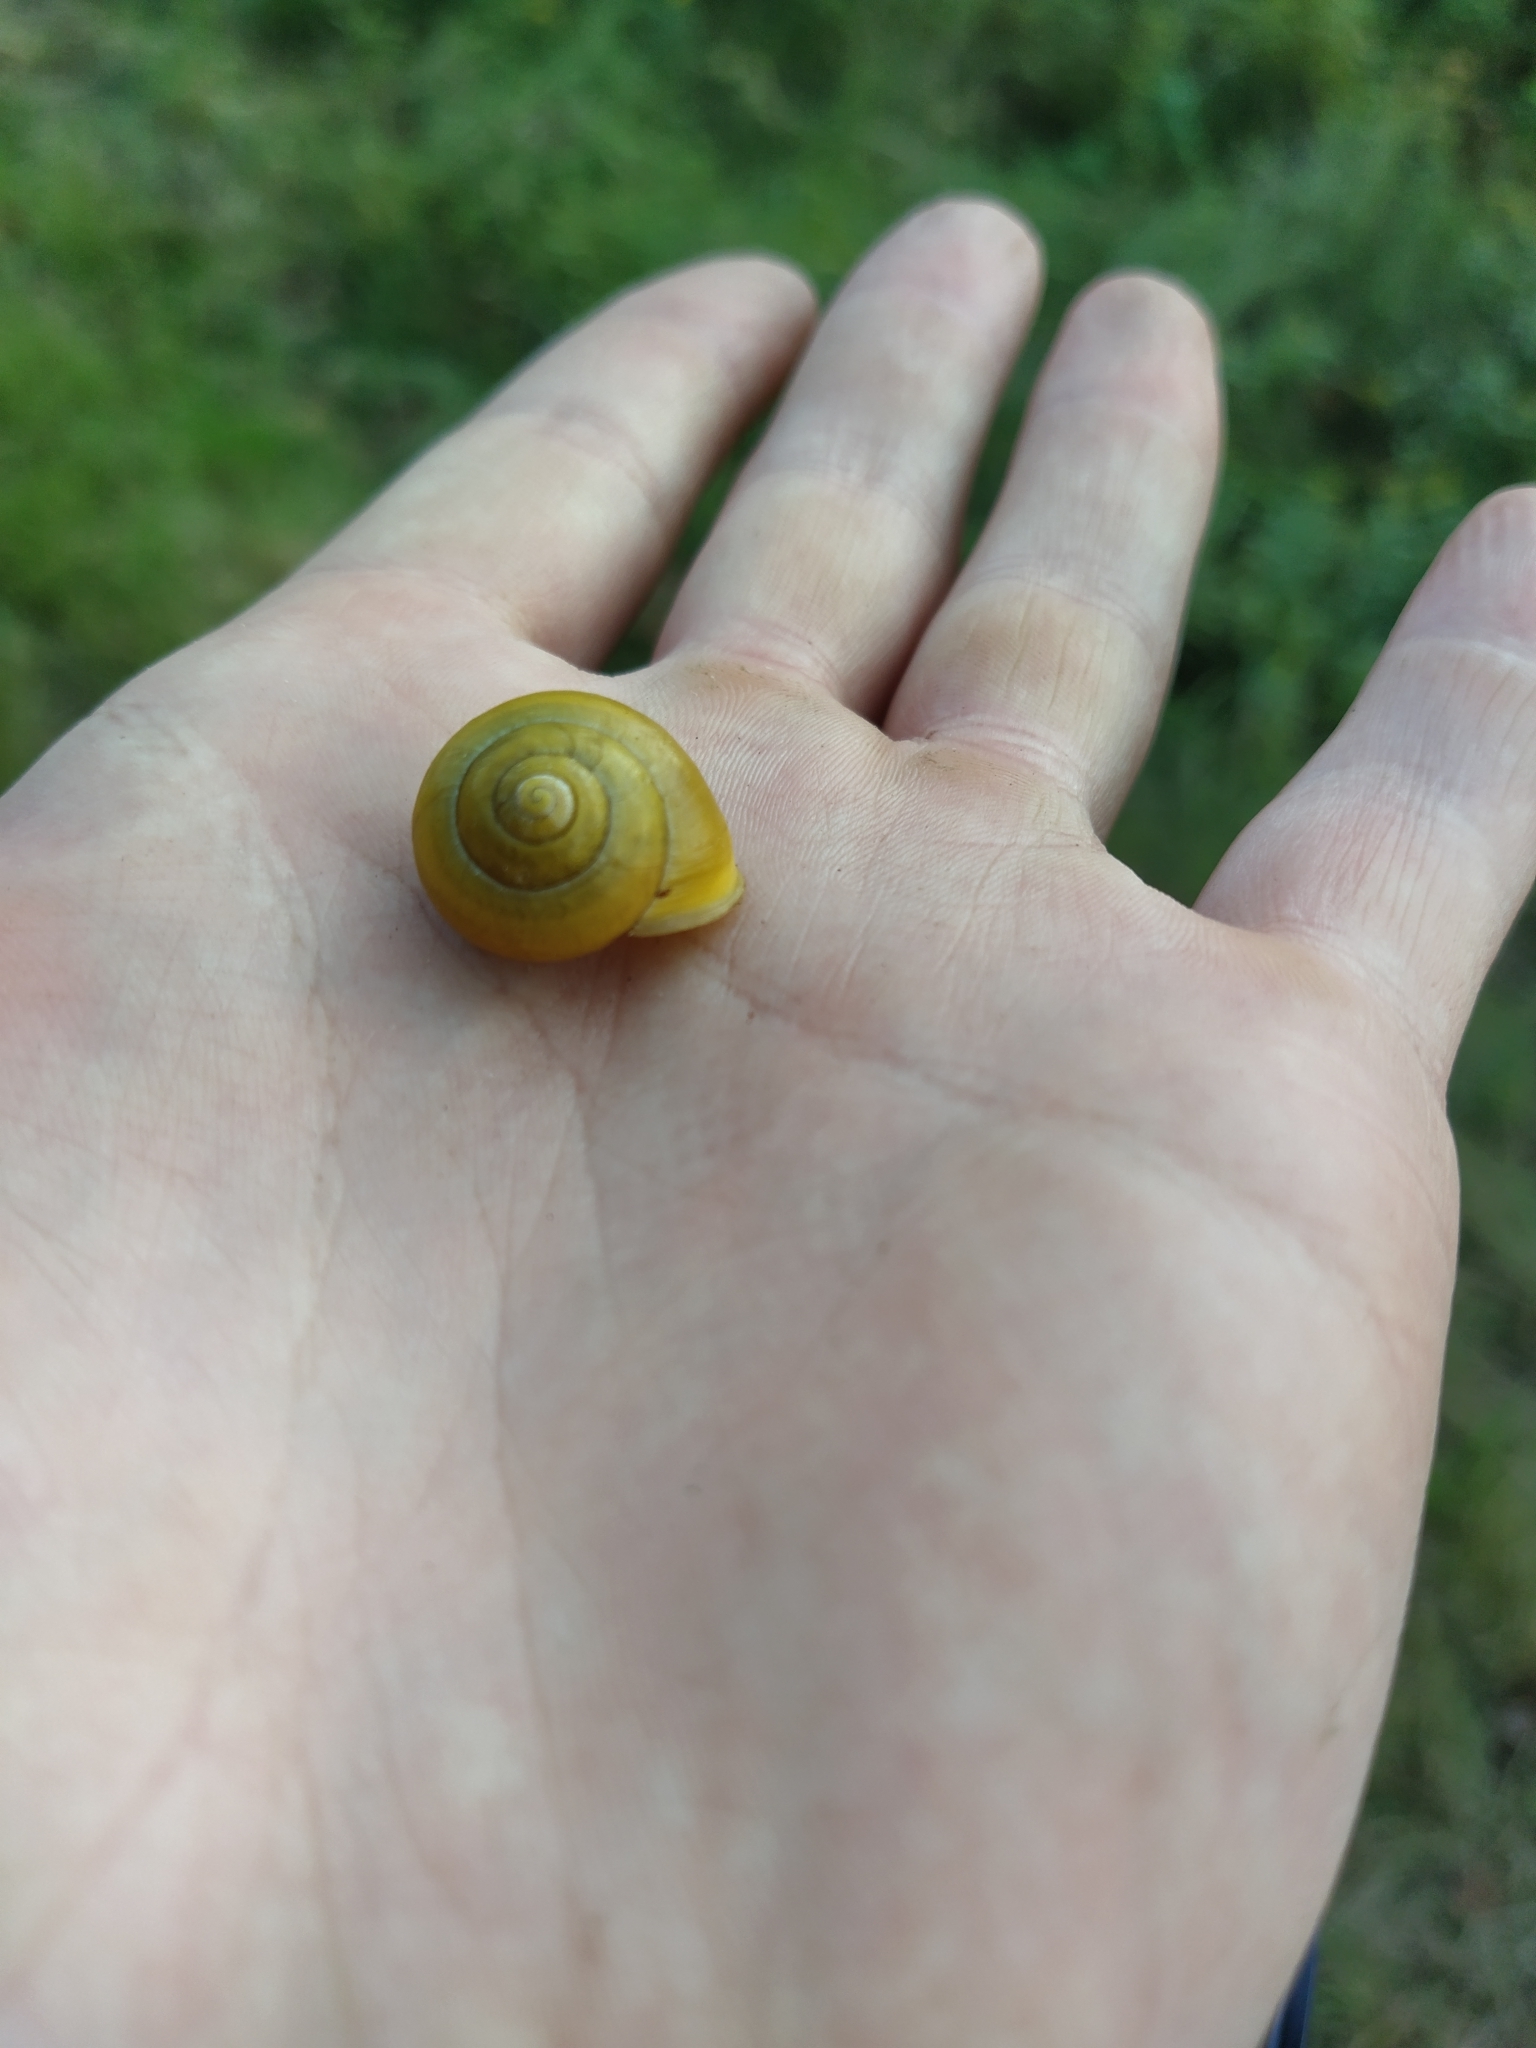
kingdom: Animalia
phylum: Mollusca
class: Gastropoda
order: Stylommatophora
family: Helicidae
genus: Cepaea
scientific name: Cepaea hortensis
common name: White-lip gardensnail
